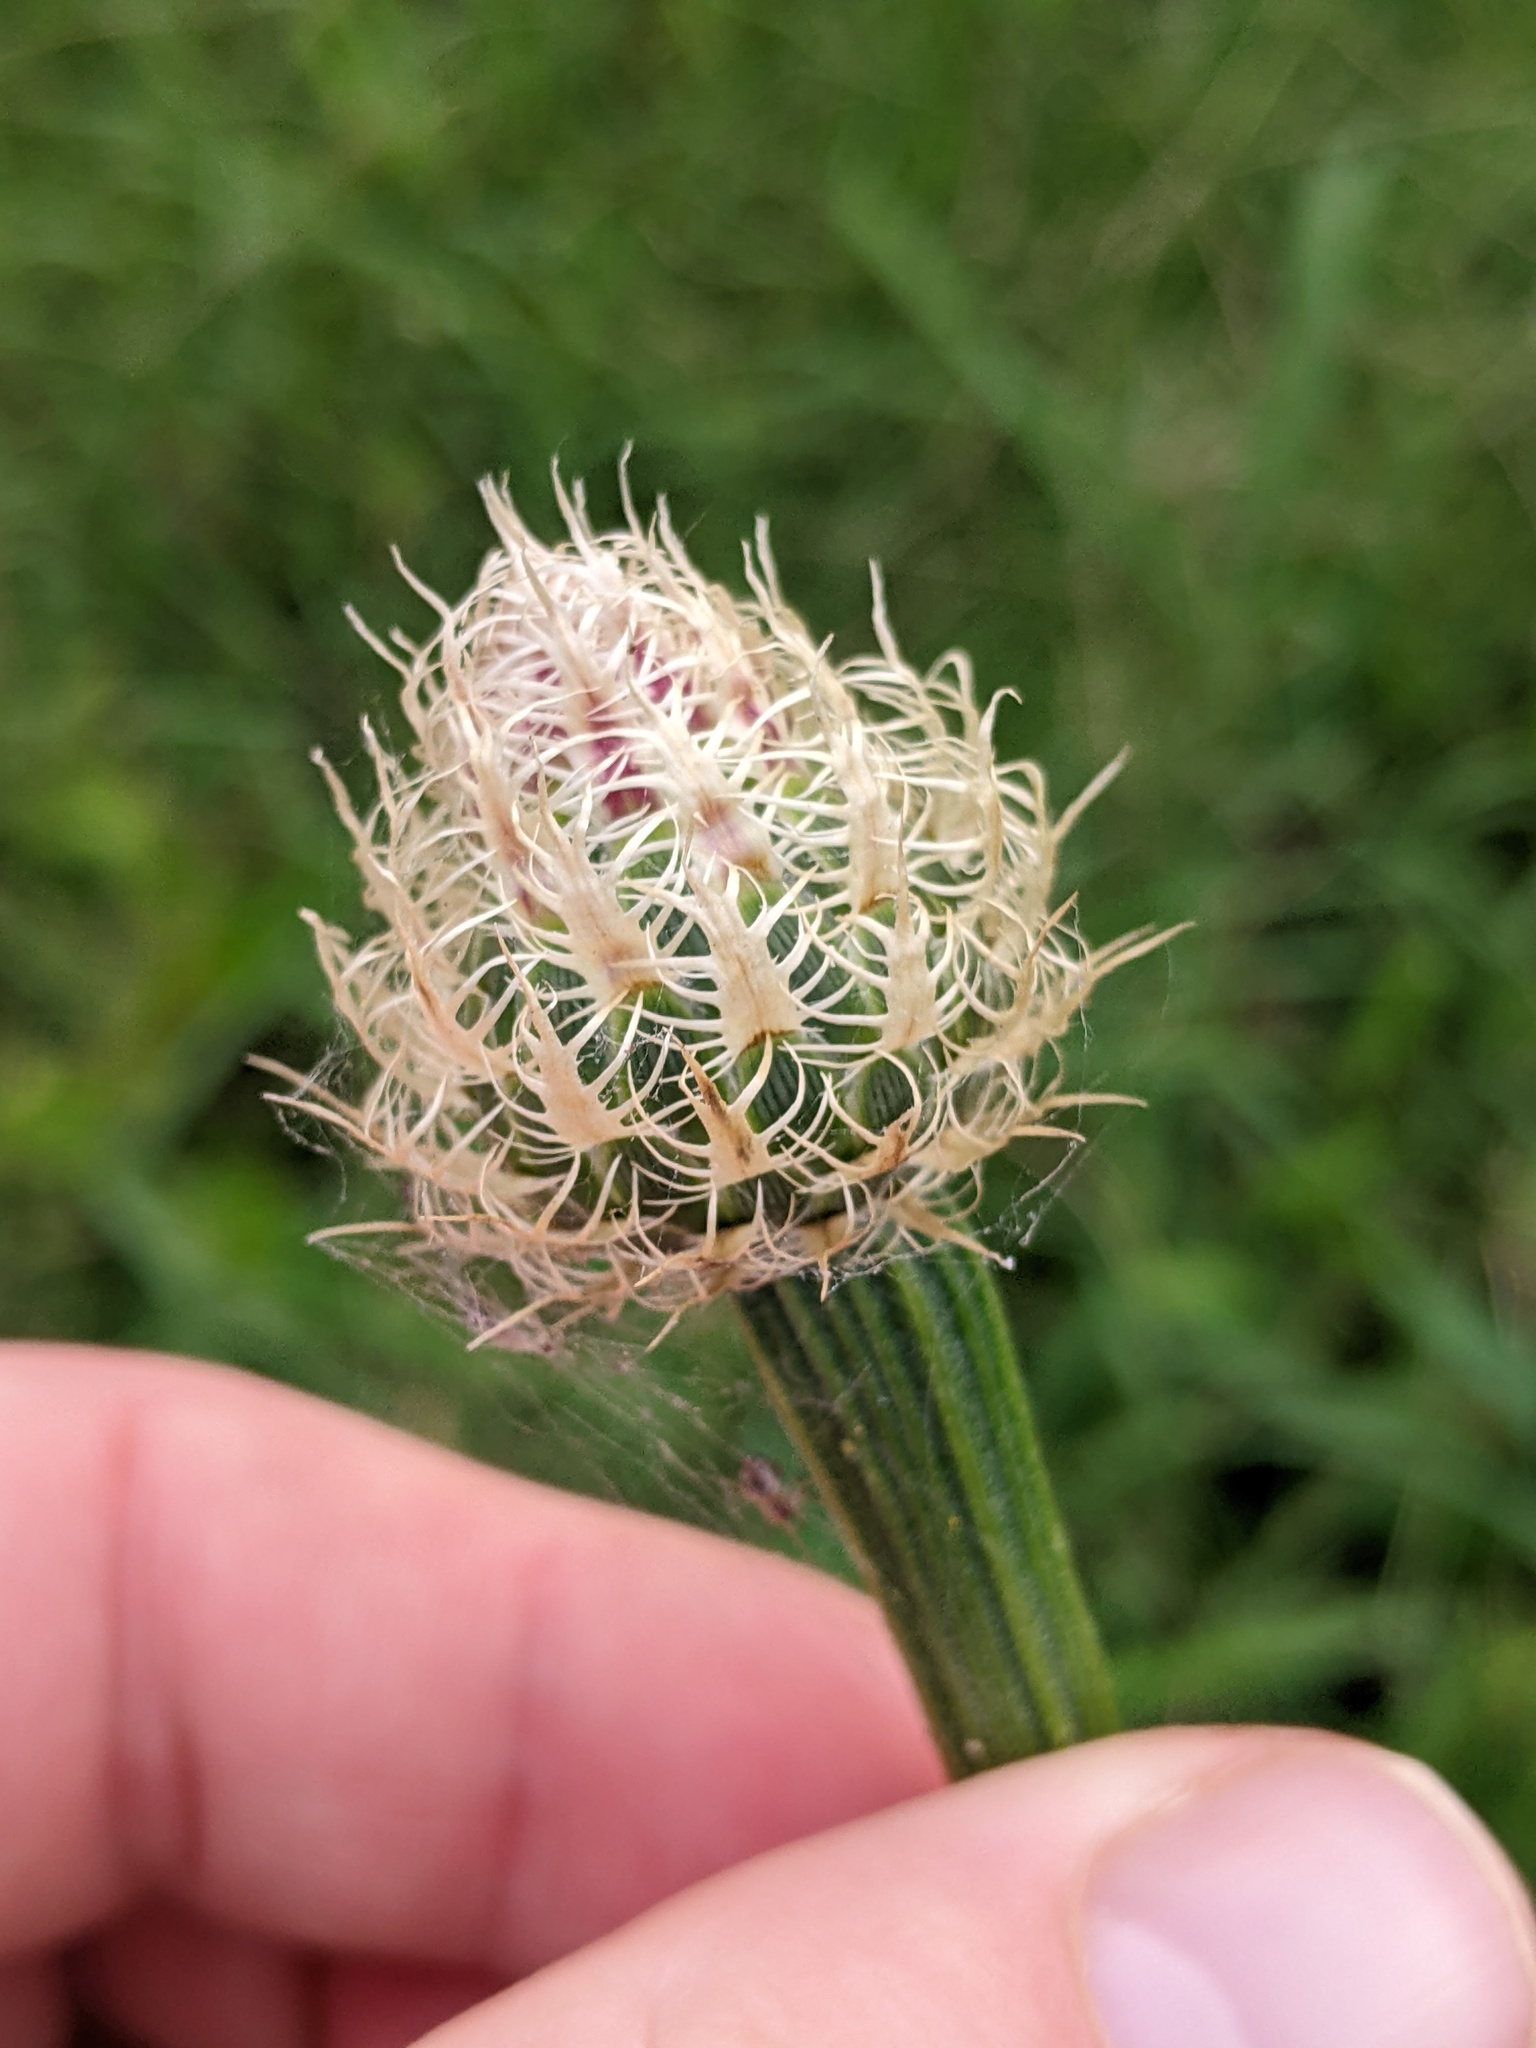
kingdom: Plantae
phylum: Tracheophyta
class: Magnoliopsida
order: Asterales
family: Asteraceae
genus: Plectocephalus
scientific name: Plectocephalus americanus
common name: American basket-flower
